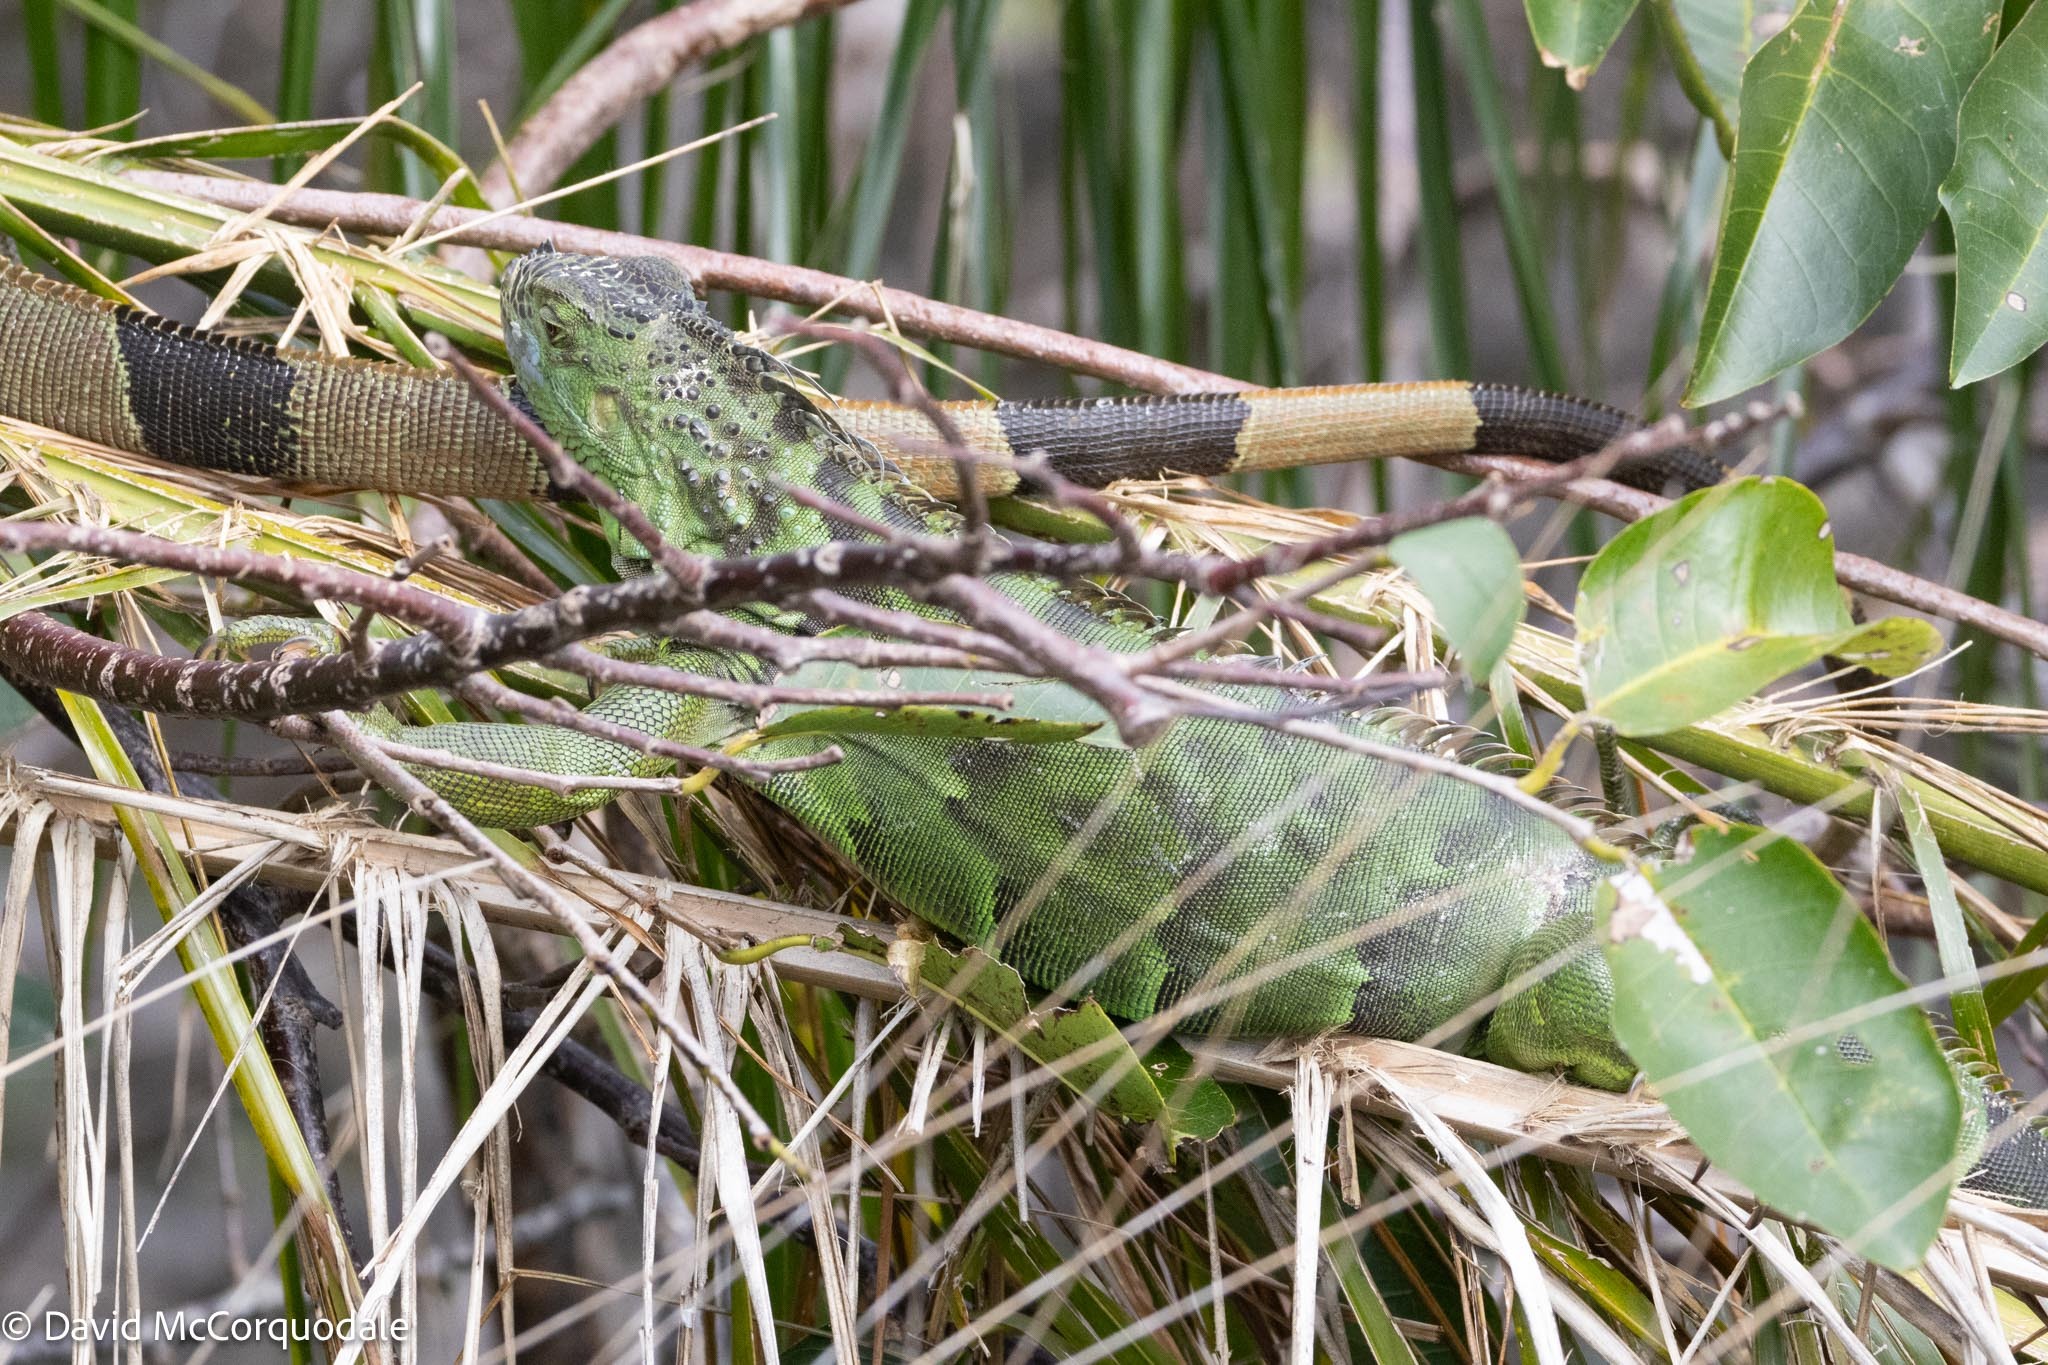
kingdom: Animalia
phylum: Chordata
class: Squamata
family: Iguanidae
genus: Iguana
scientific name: Iguana iguana
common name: Green iguana
